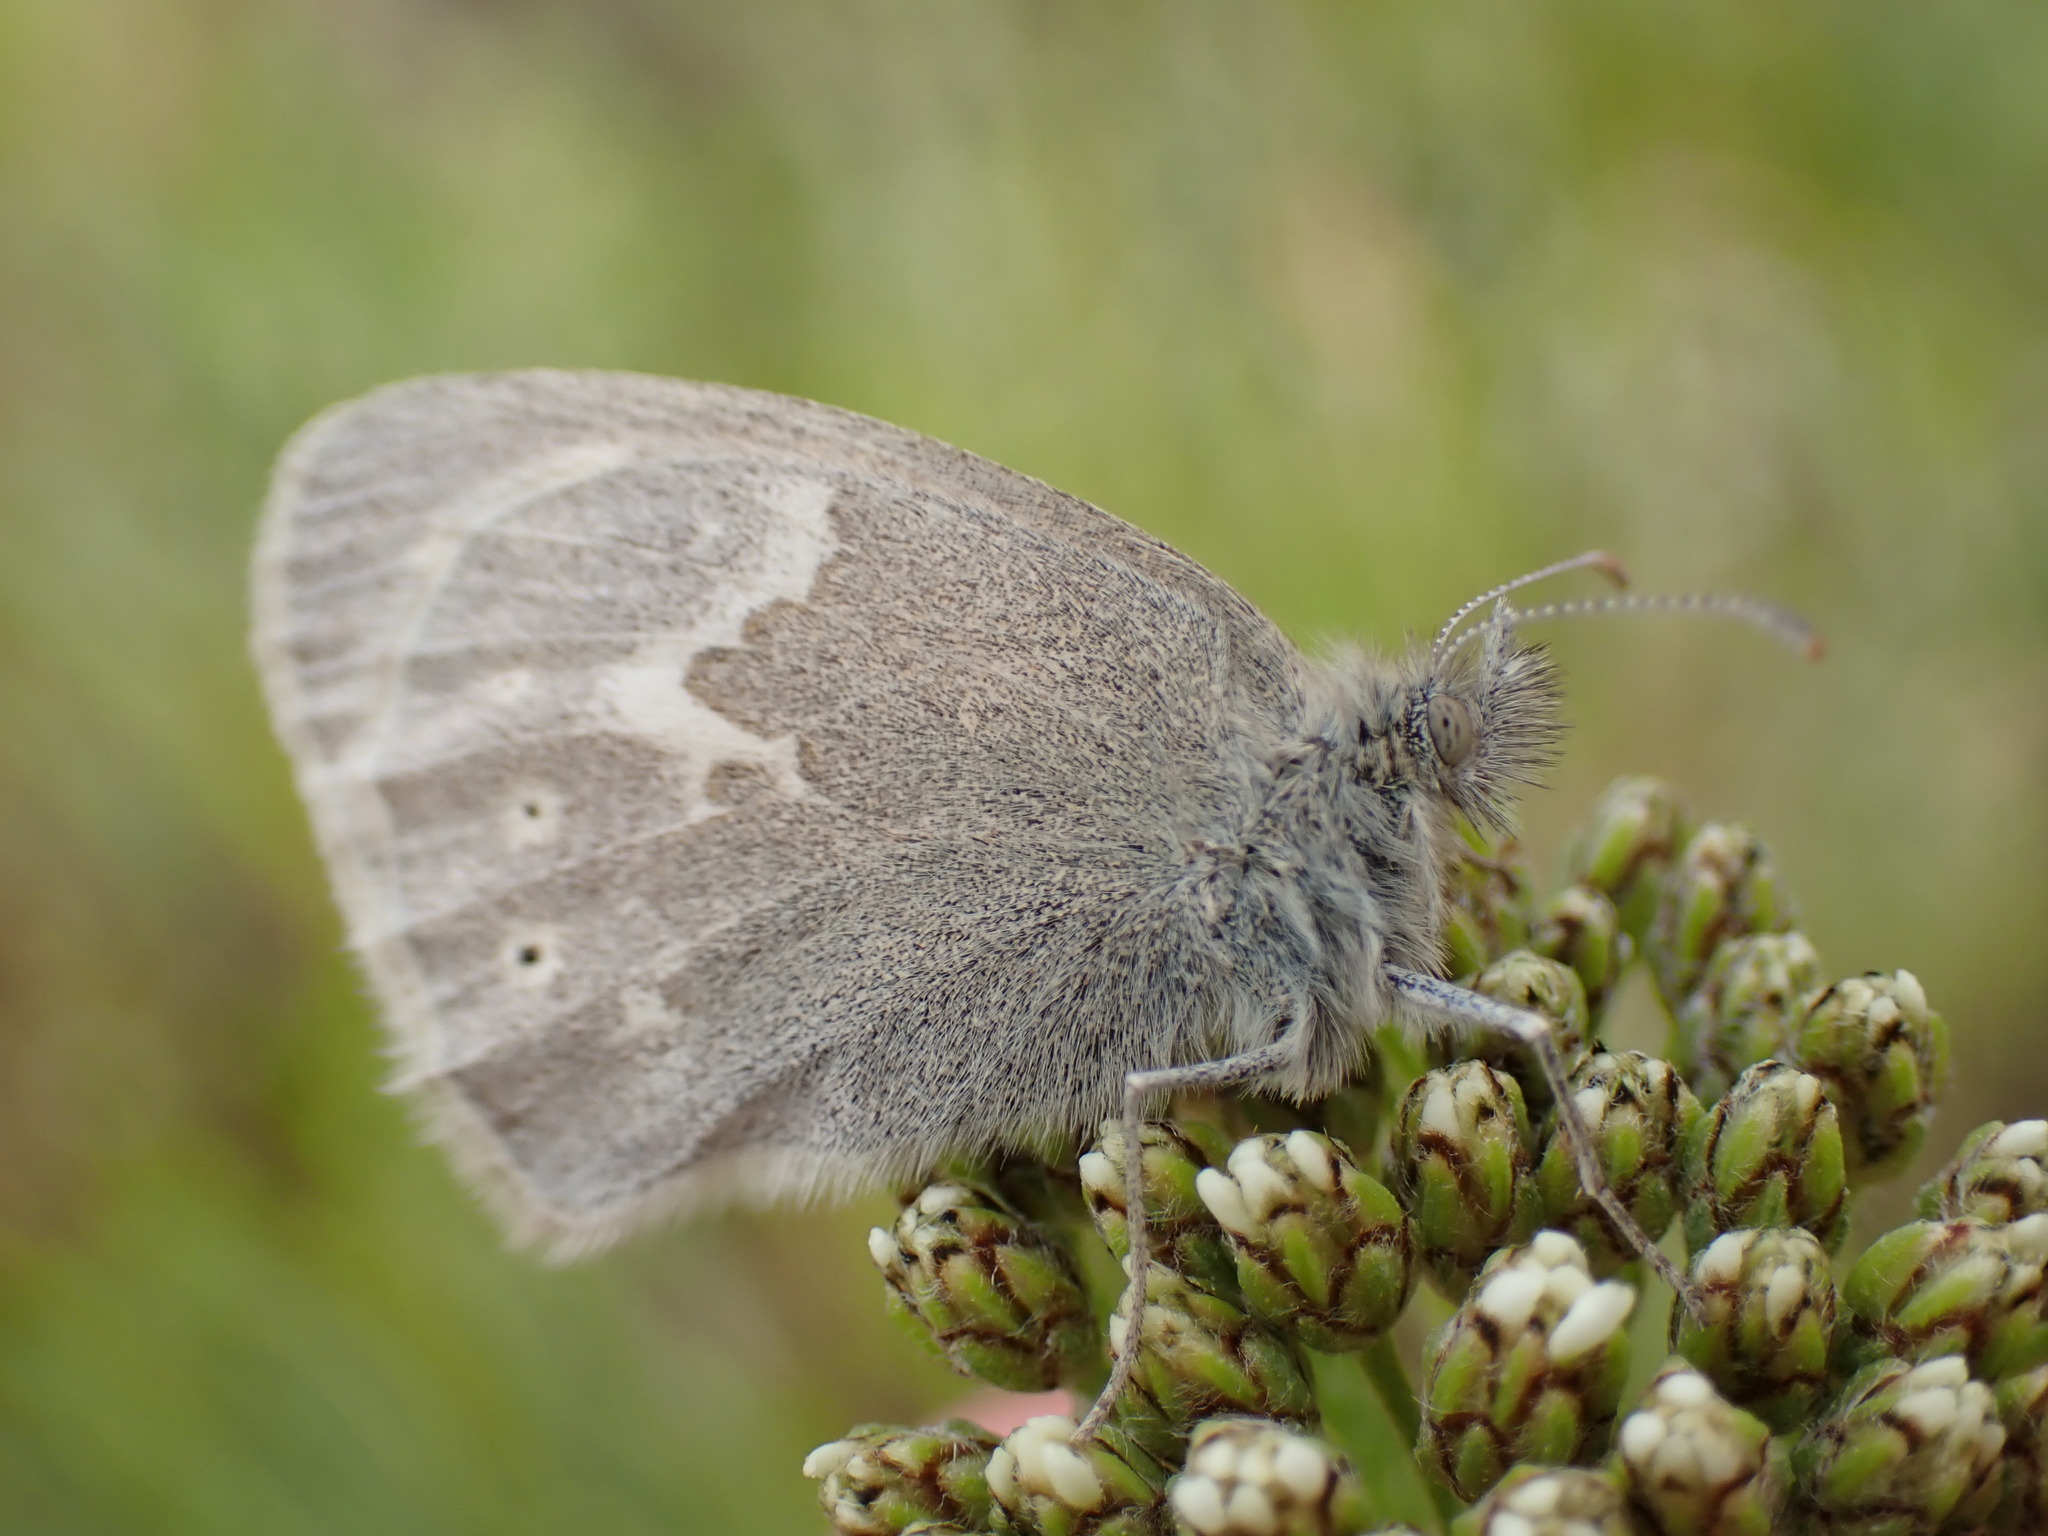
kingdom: Animalia
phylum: Arthropoda
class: Insecta
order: Lepidoptera
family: Nymphalidae
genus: Coenonympha
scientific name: Coenonympha california
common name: Common ringlet
